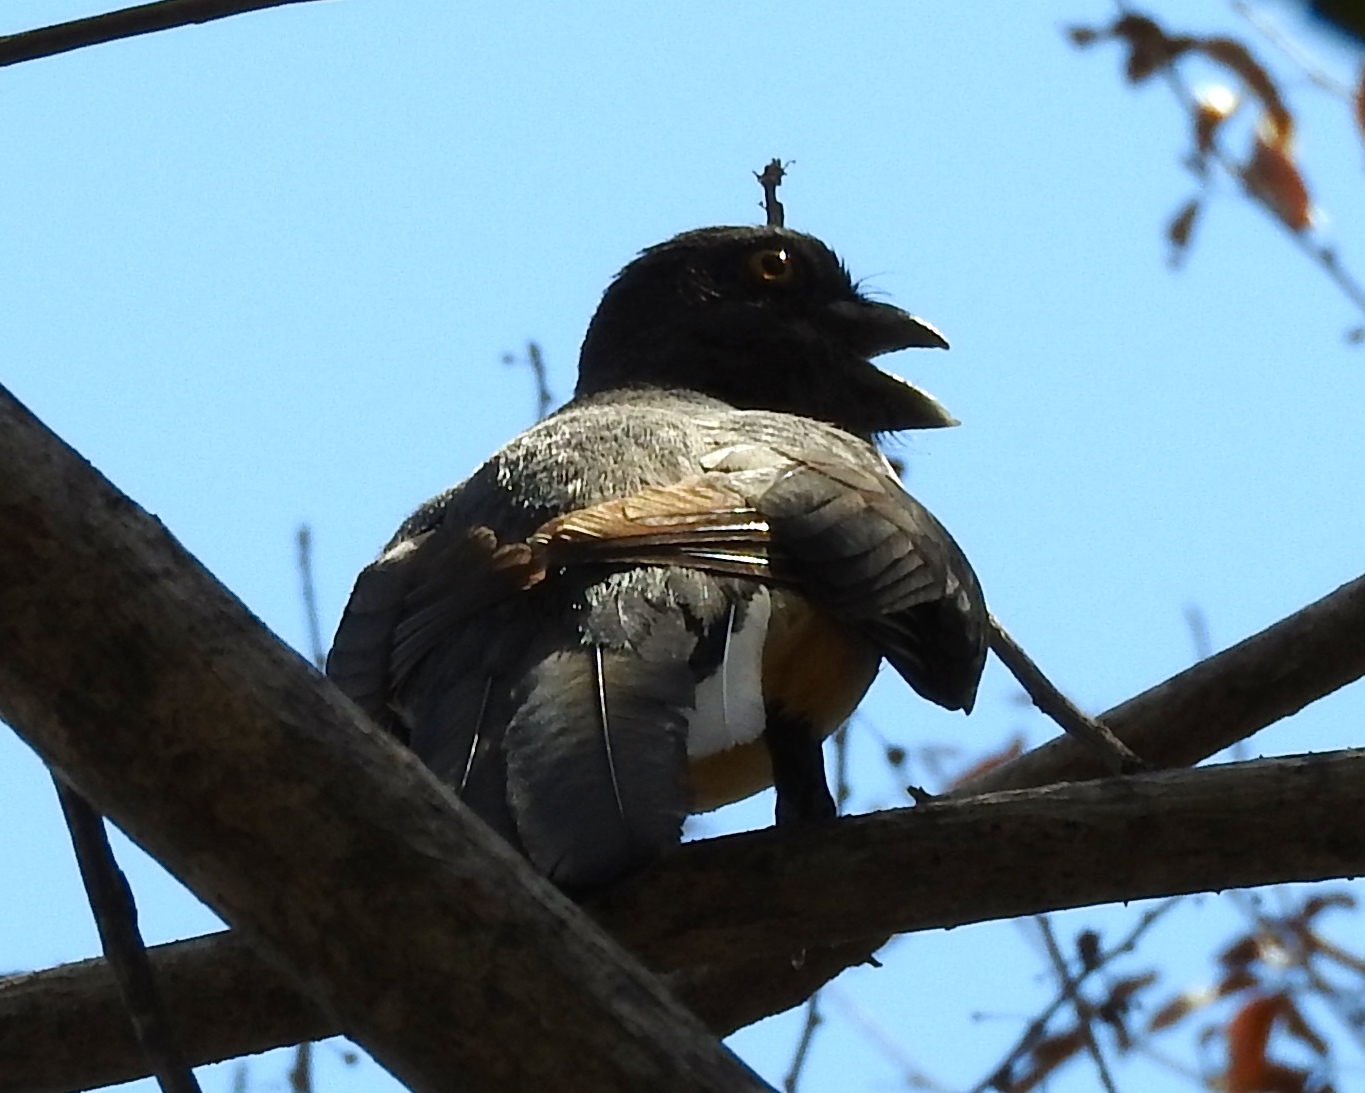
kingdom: Animalia
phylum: Chordata
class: Aves
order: Trogoniformes
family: Trogonidae
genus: Trogon
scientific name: Trogon citreolus
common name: Citreoline trogon
